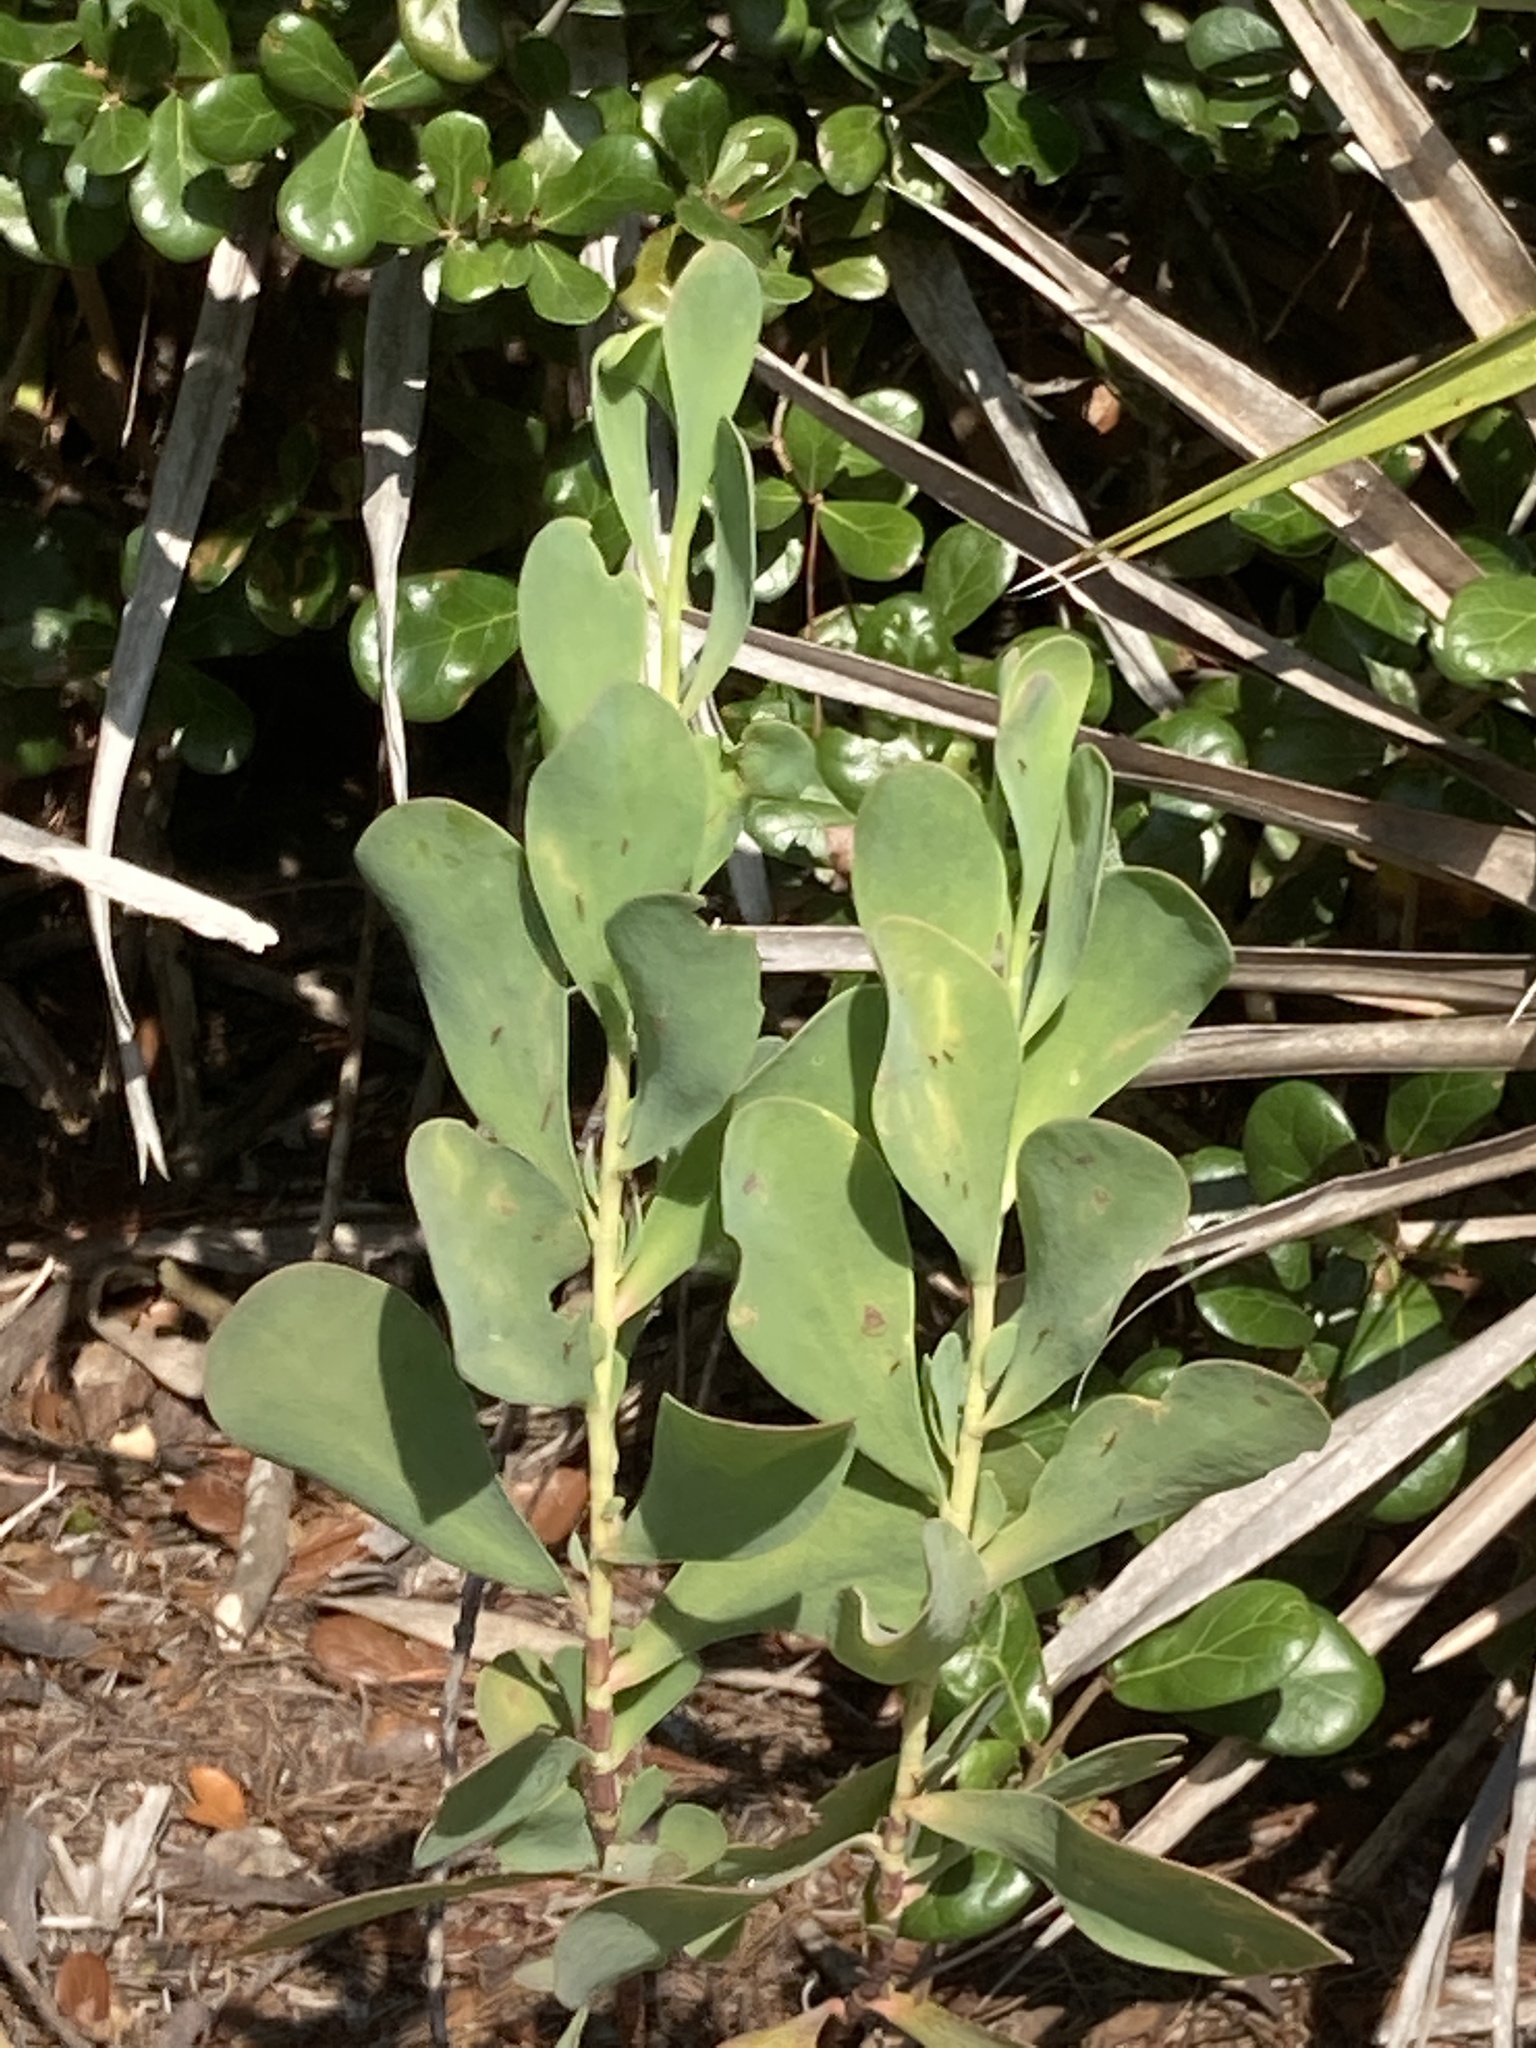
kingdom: Plantae
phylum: Tracheophyta
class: Magnoliopsida
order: Caryophyllales
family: Polygonaceae
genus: Polygonella
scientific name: Polygonella macrophylla
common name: Large-leaf wireweed
